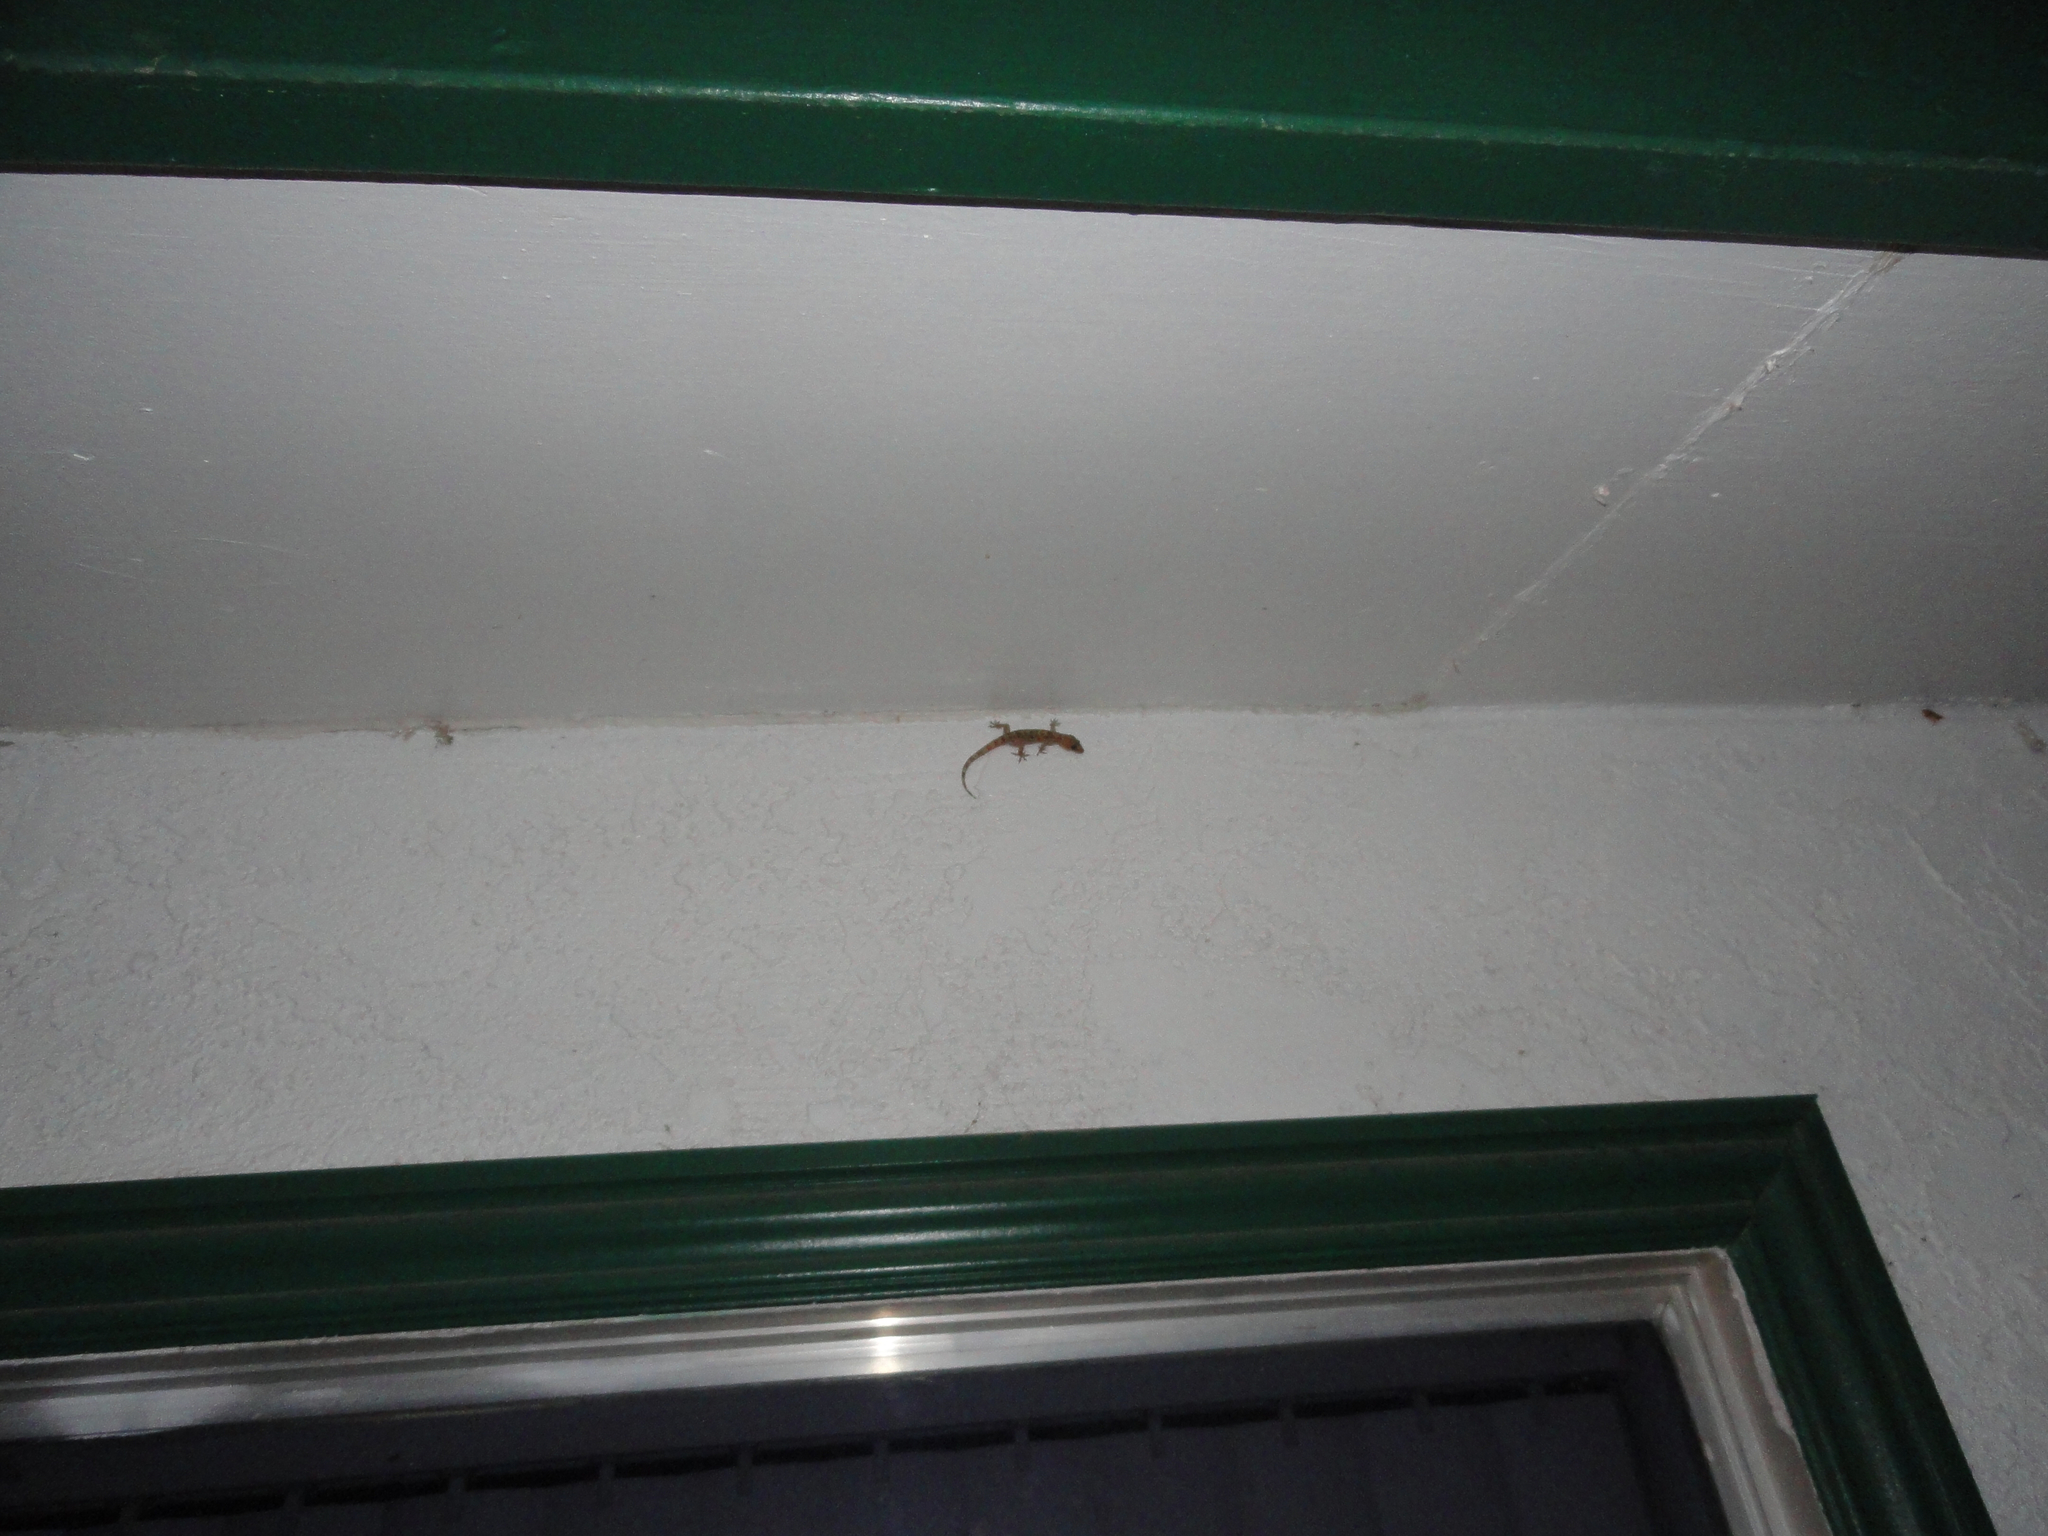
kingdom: Animalia
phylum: Chordata
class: Squamata
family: Gekkonidae
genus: Hemidactylus
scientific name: Hemidactylus turcicus
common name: Turkish gecko
